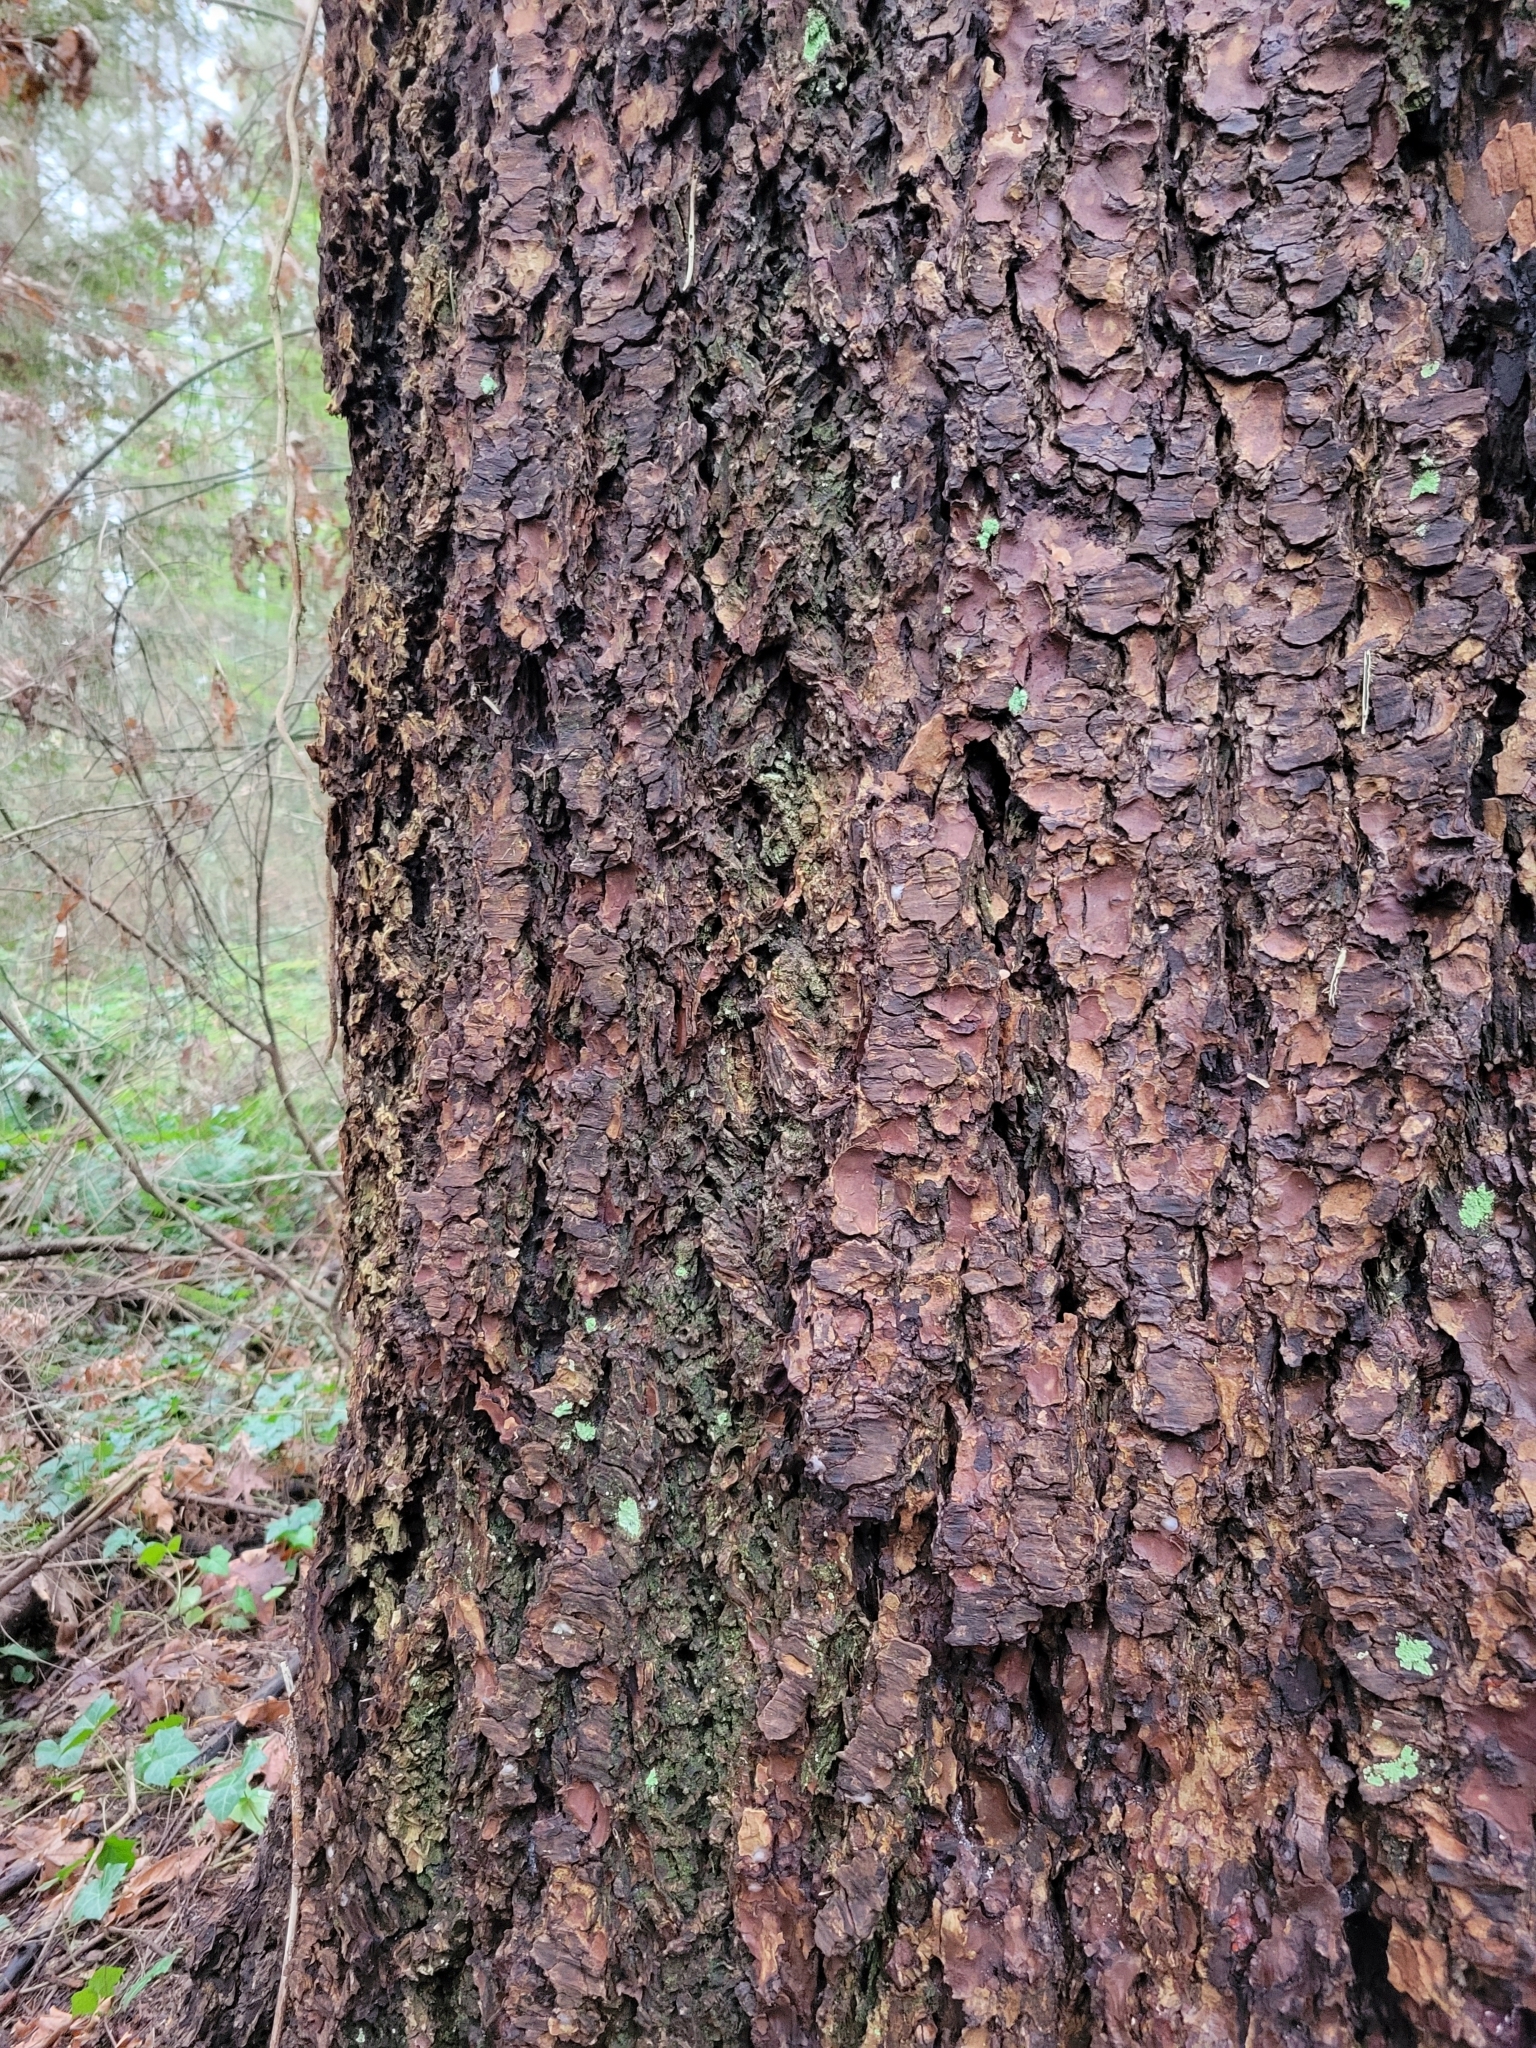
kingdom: Plantae
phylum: Tracheophyta
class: Pinopsida
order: Pinales
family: Pinaceae
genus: Pseudotsuga
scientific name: Pseudotsuga menziesii
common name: Douglas fir
